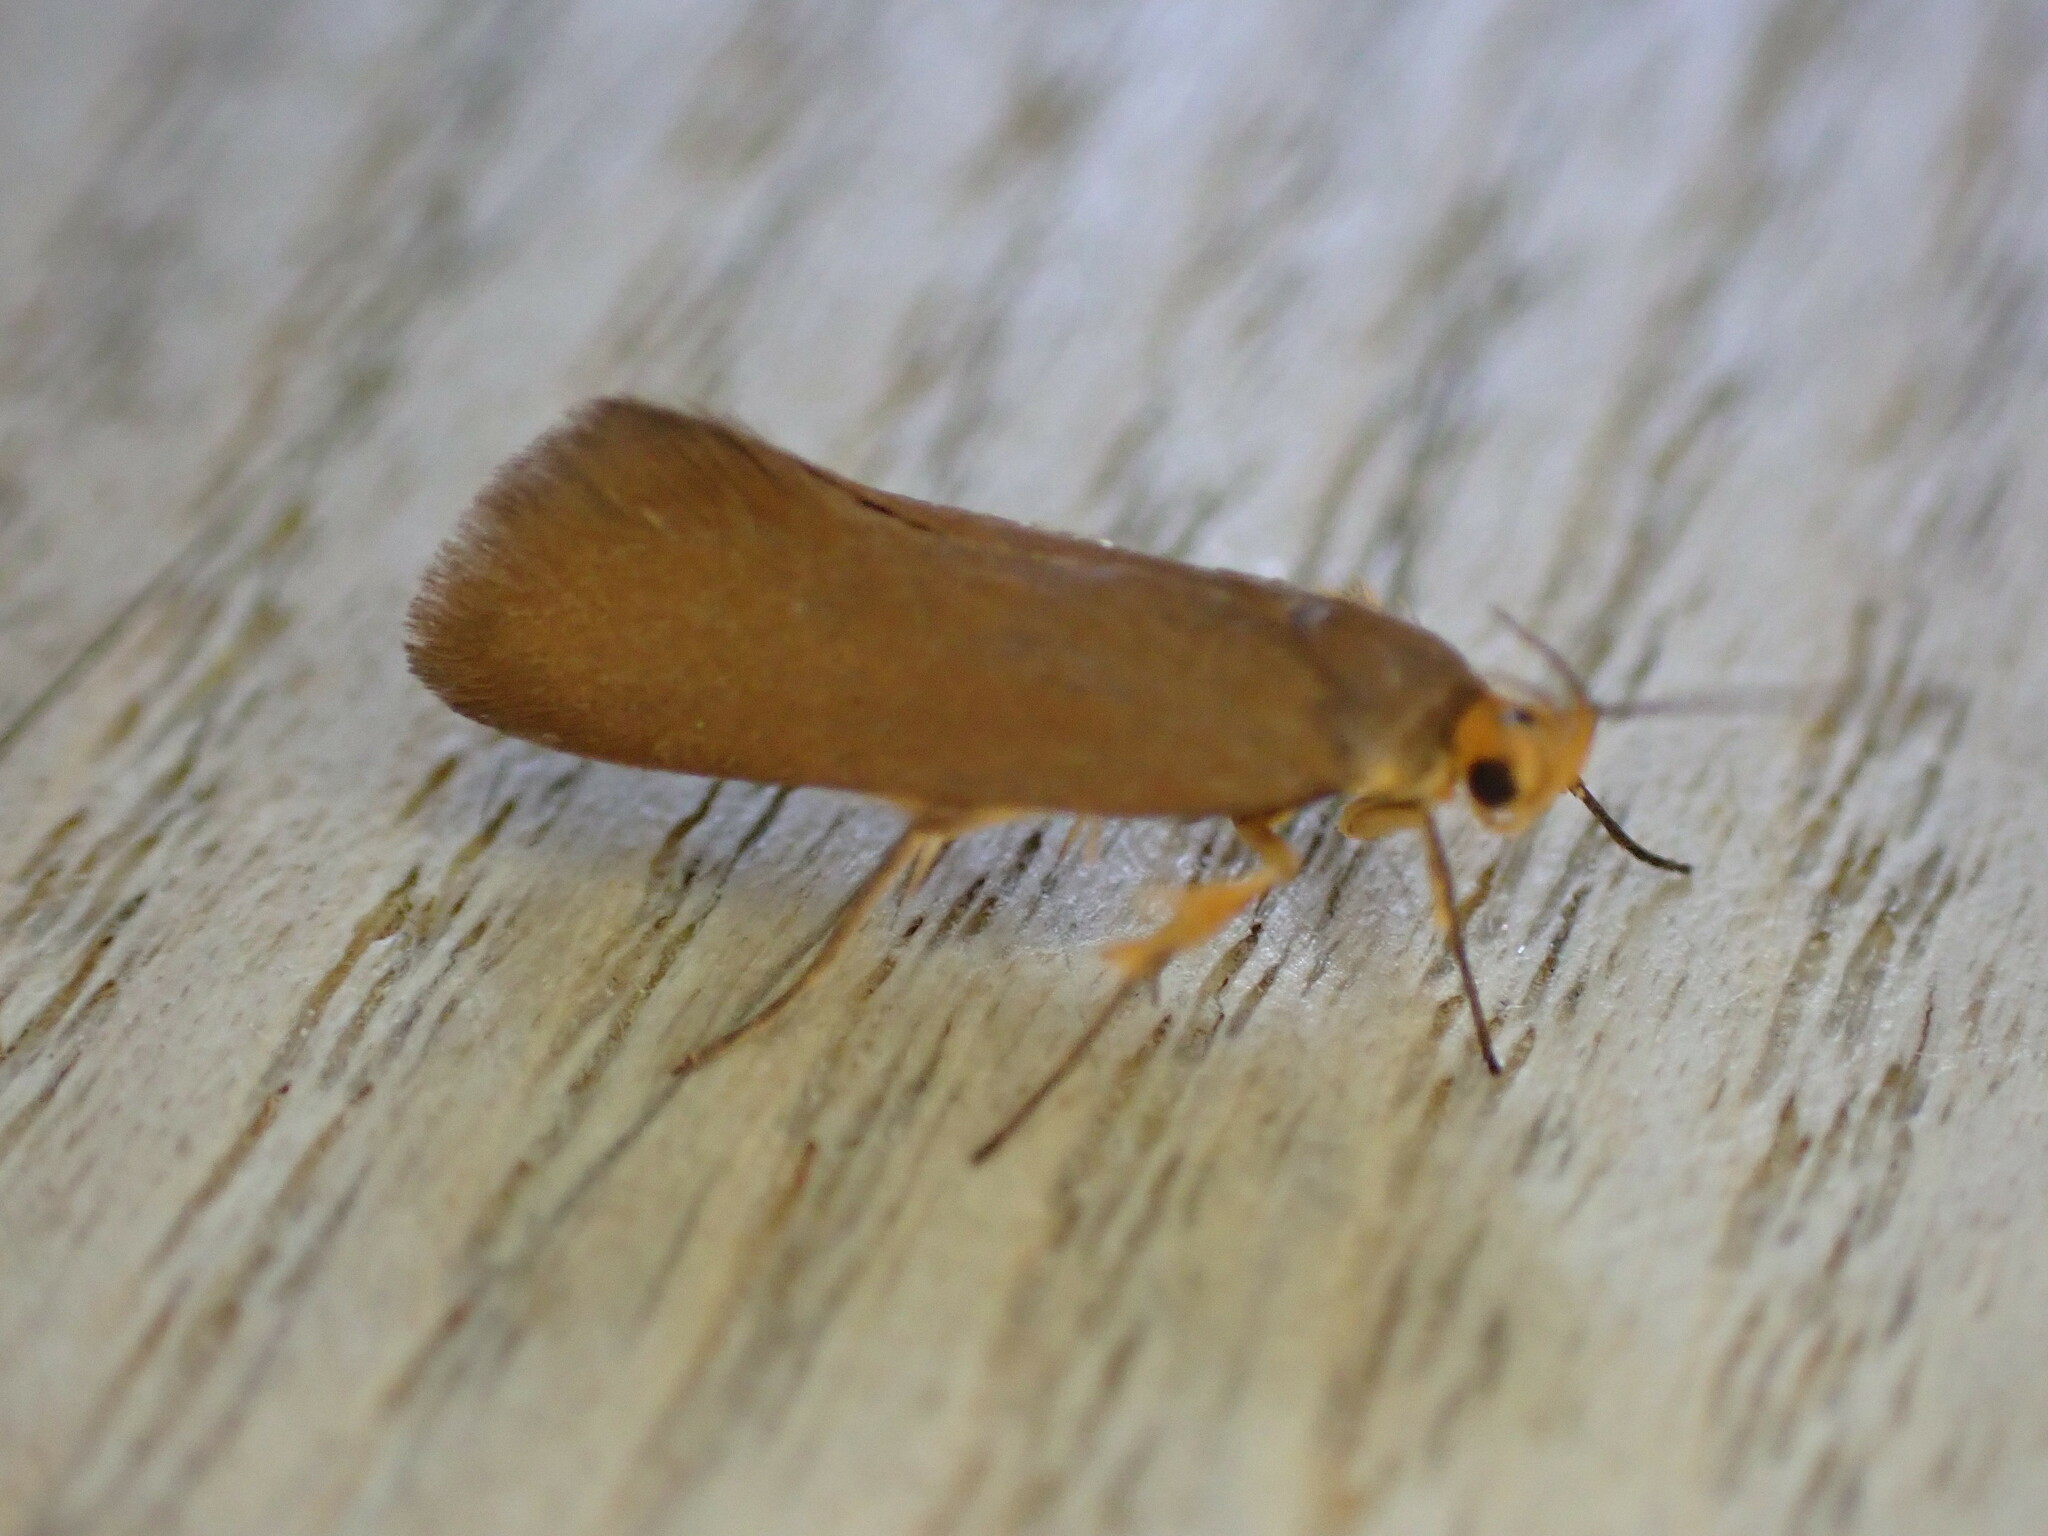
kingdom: Animalia
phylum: Arthropoda
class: Insecta
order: Lepidoptera
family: Oecophoridae
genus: Borkhausenia
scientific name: Borkhausenia Crassa unitella
